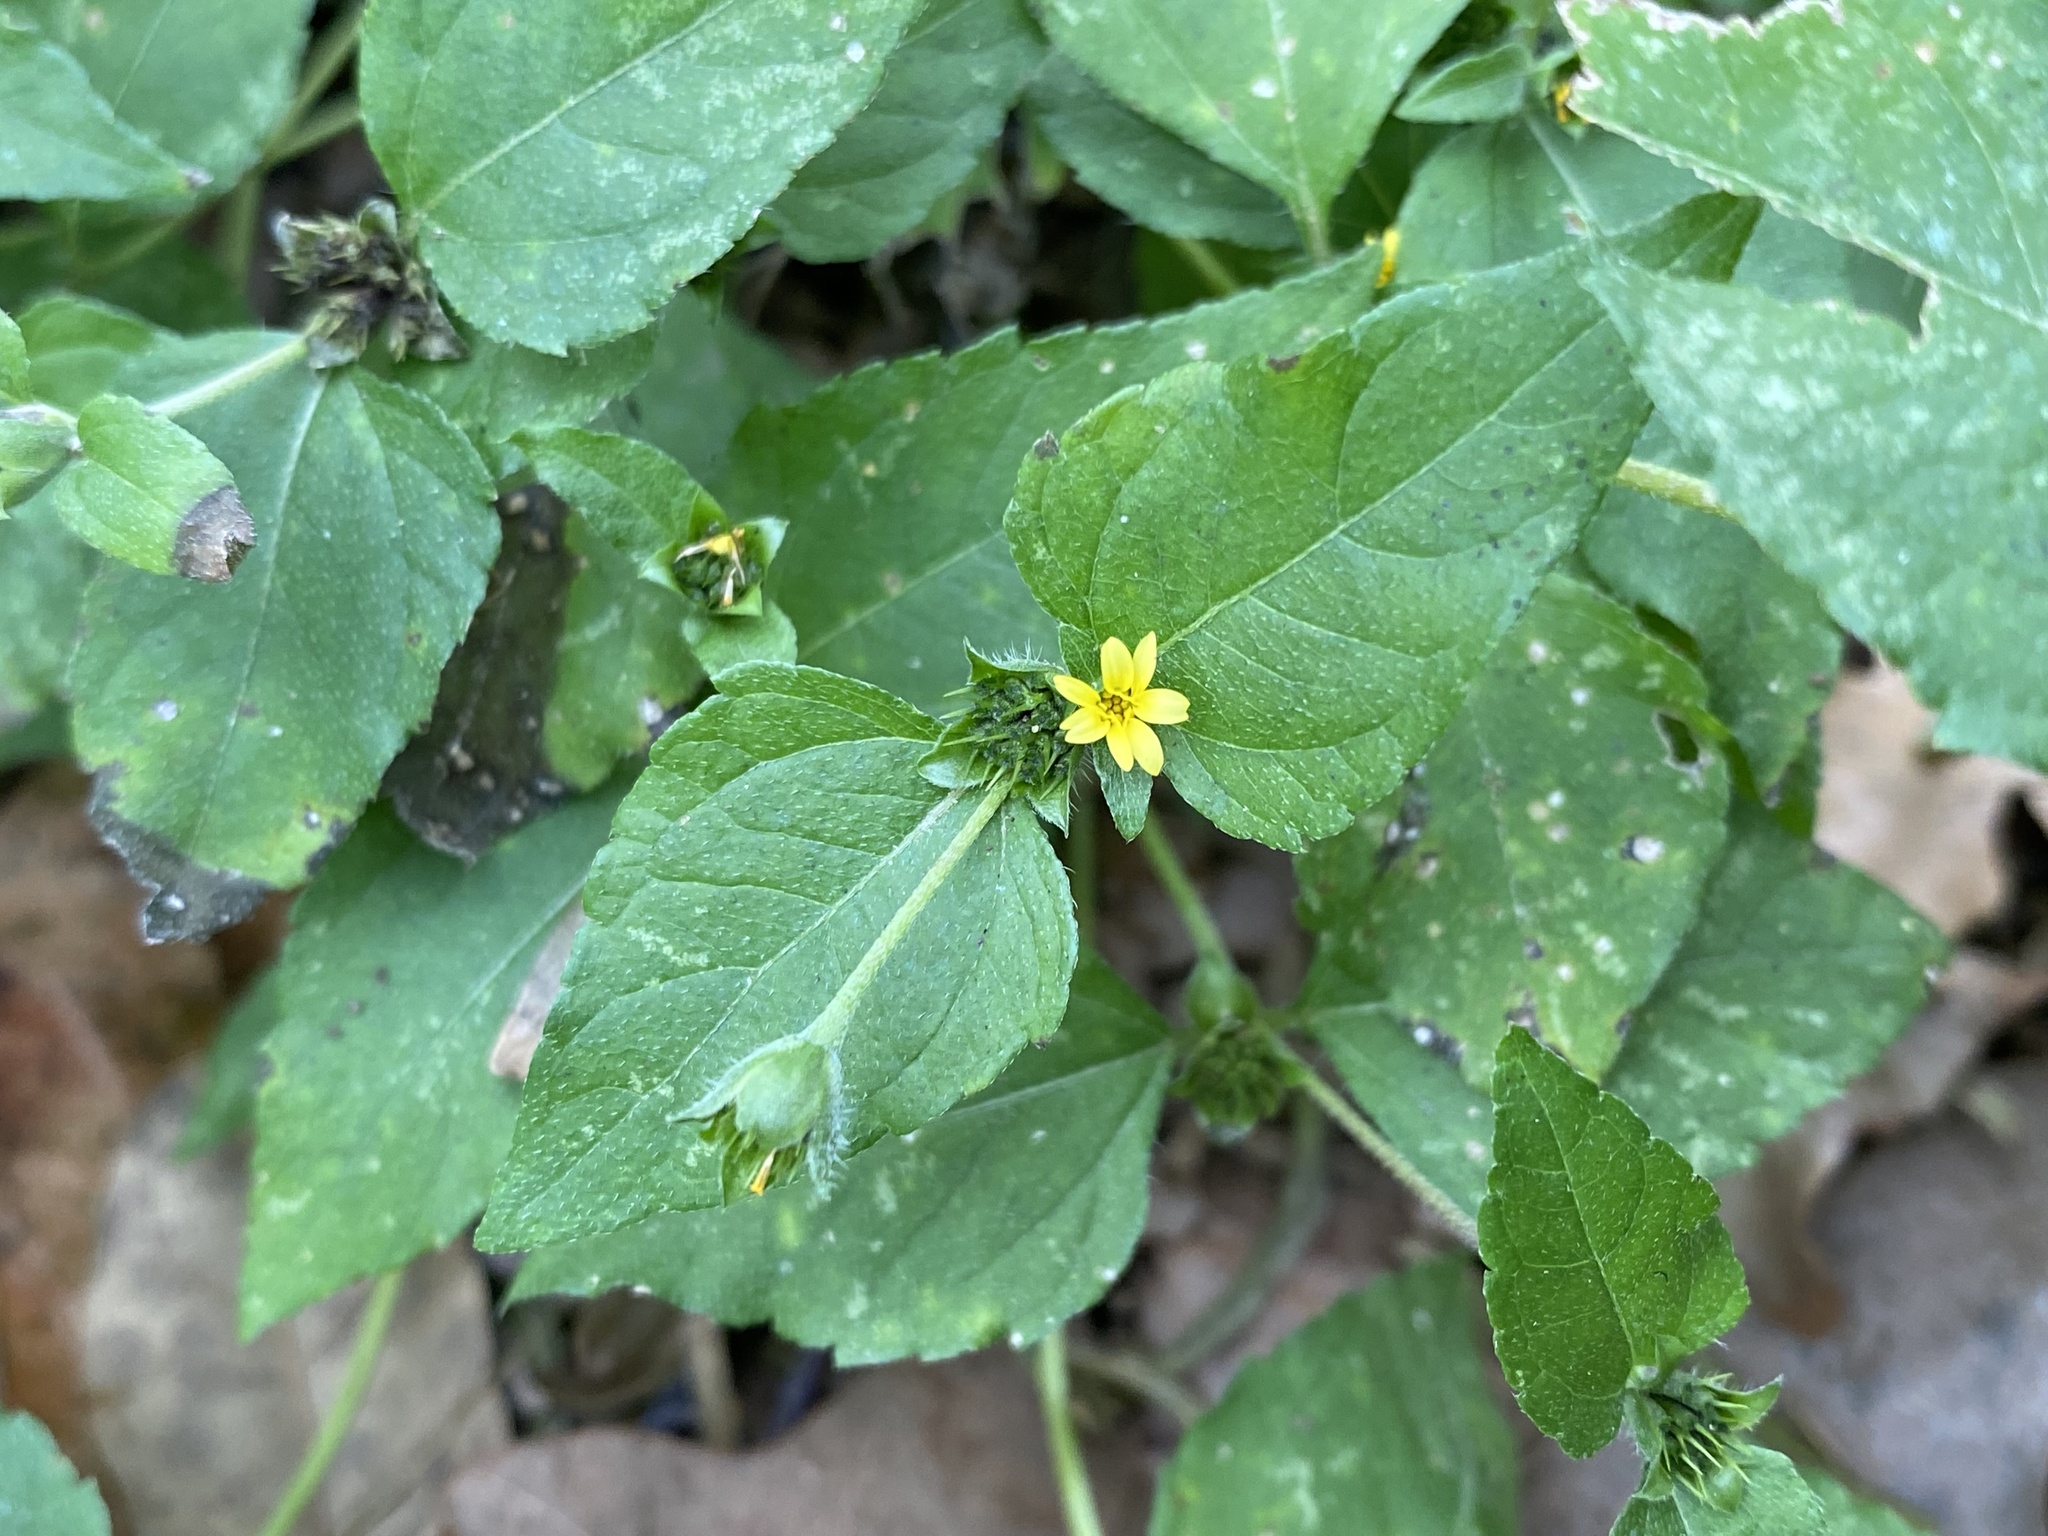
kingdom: Plantae
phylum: Tracheophyta
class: Magnoliopsida
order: Asterales
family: Asteraceae
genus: Calyptocarpus
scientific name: Calyptocarpus vialis
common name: Straggler daisy
